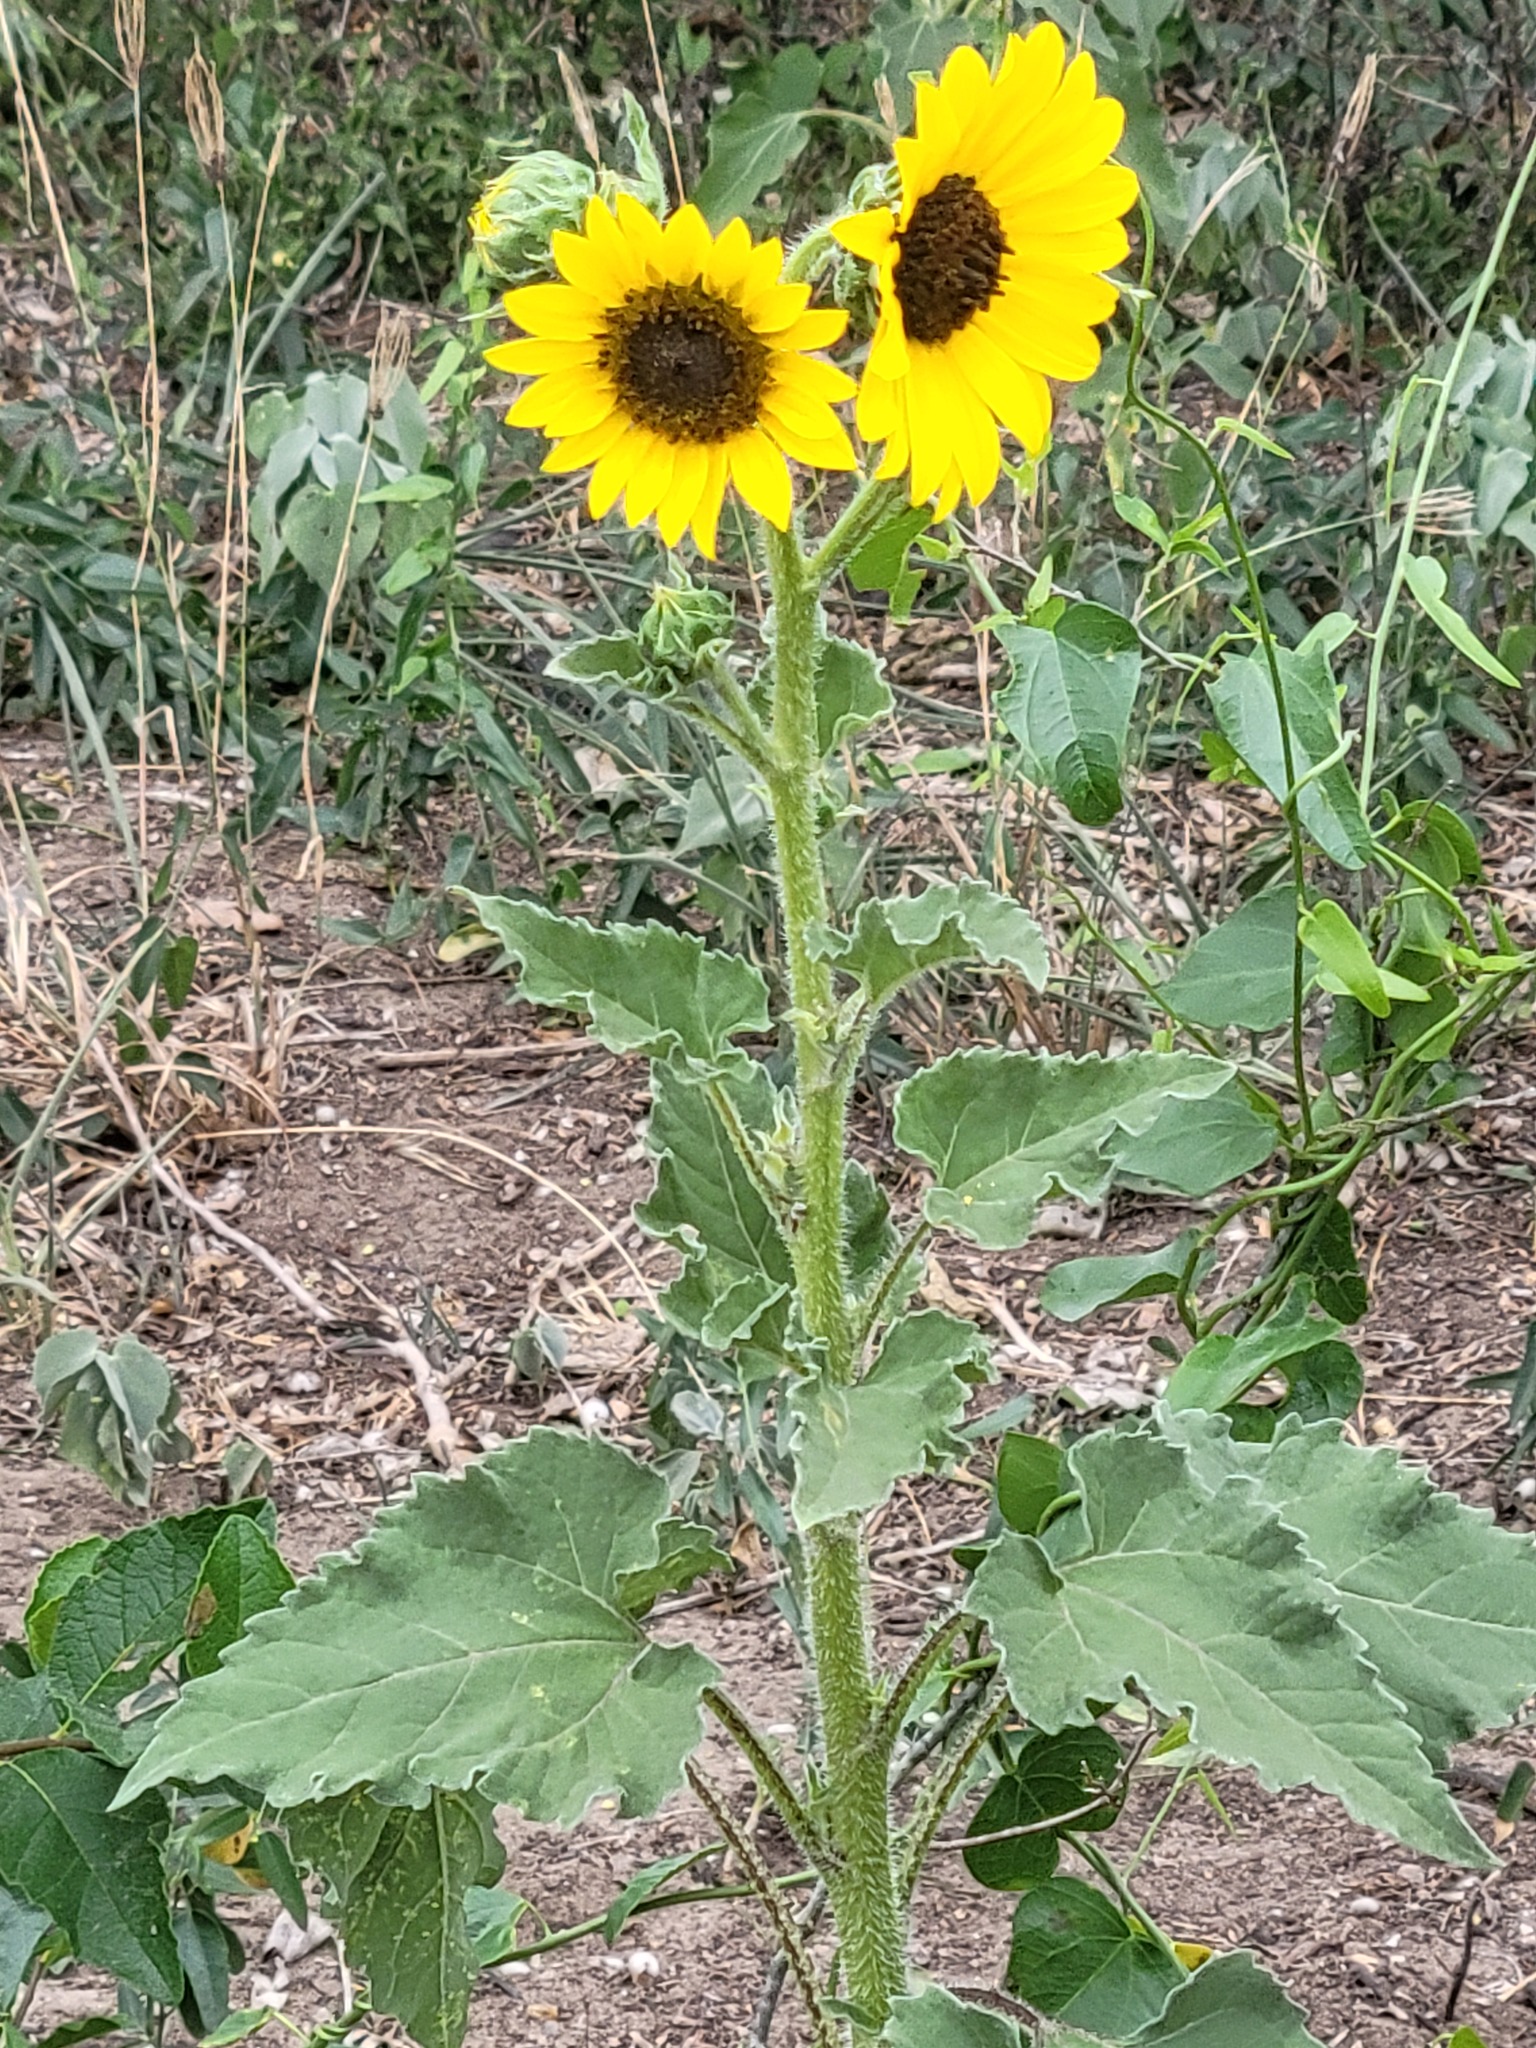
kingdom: Plantae
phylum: Tracheophyta
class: Magnoliopsida
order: Asterales
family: Asteraceae
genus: Helianthus
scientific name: Helianthus annuus
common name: Sunflower
